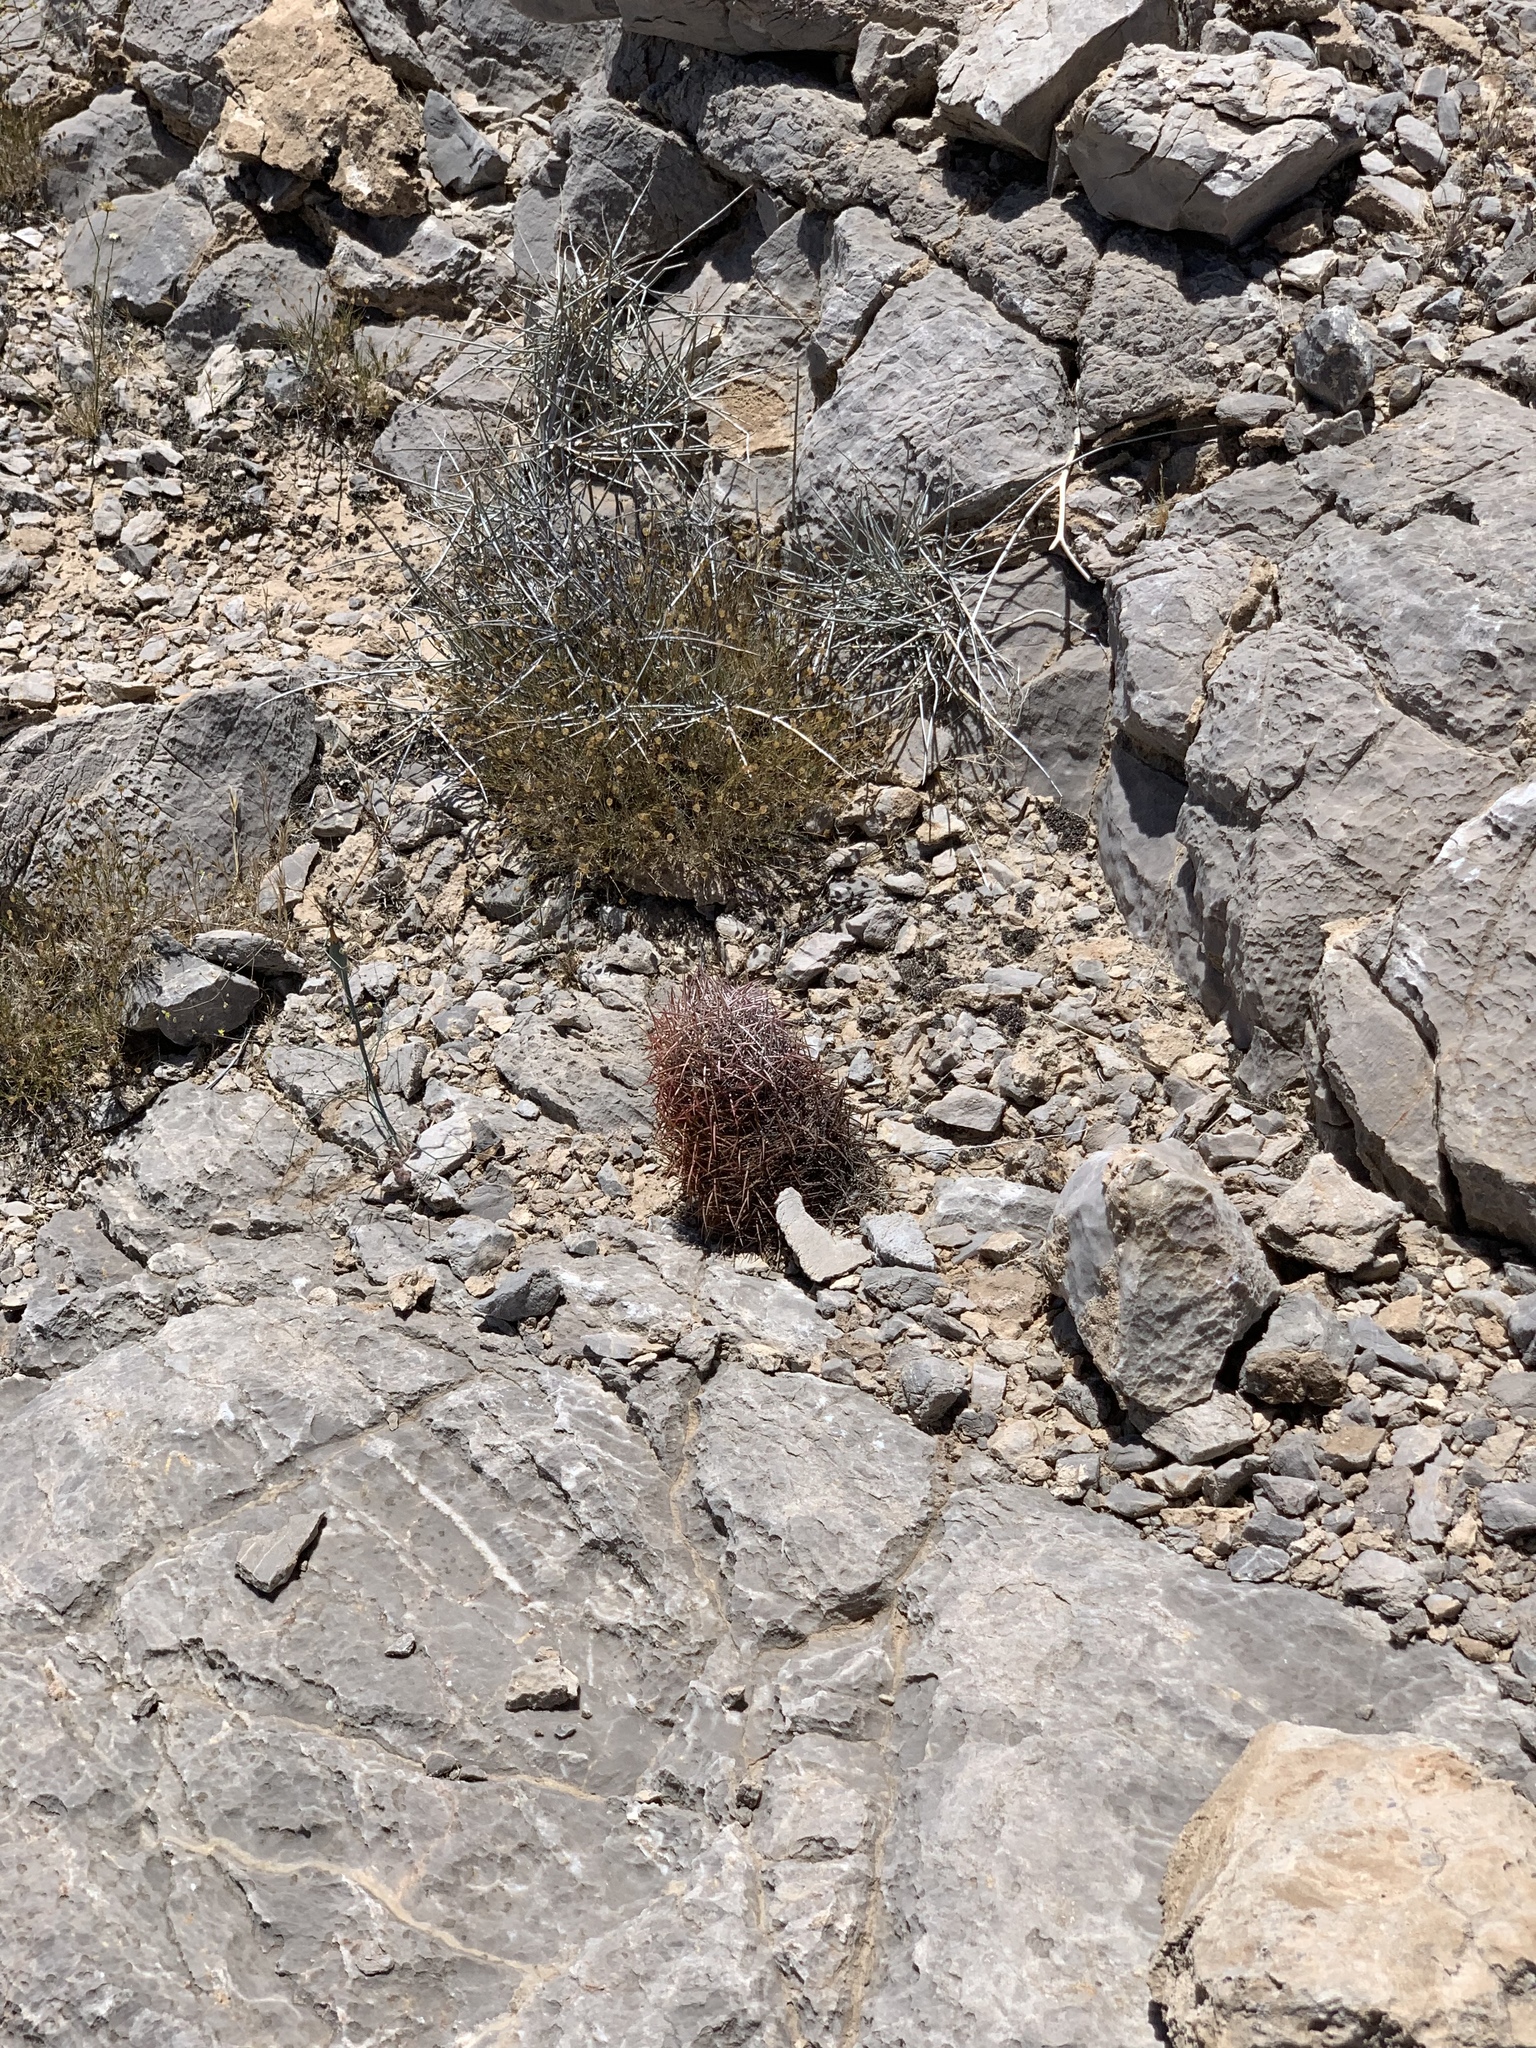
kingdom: Plantae
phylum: Tracheophyta
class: Magnoliopsida
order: Caryophyllales
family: Cactaceae
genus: Sclerocactus
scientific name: Sclerocactus johnsonii
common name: Eight-spine fishhook cactus
